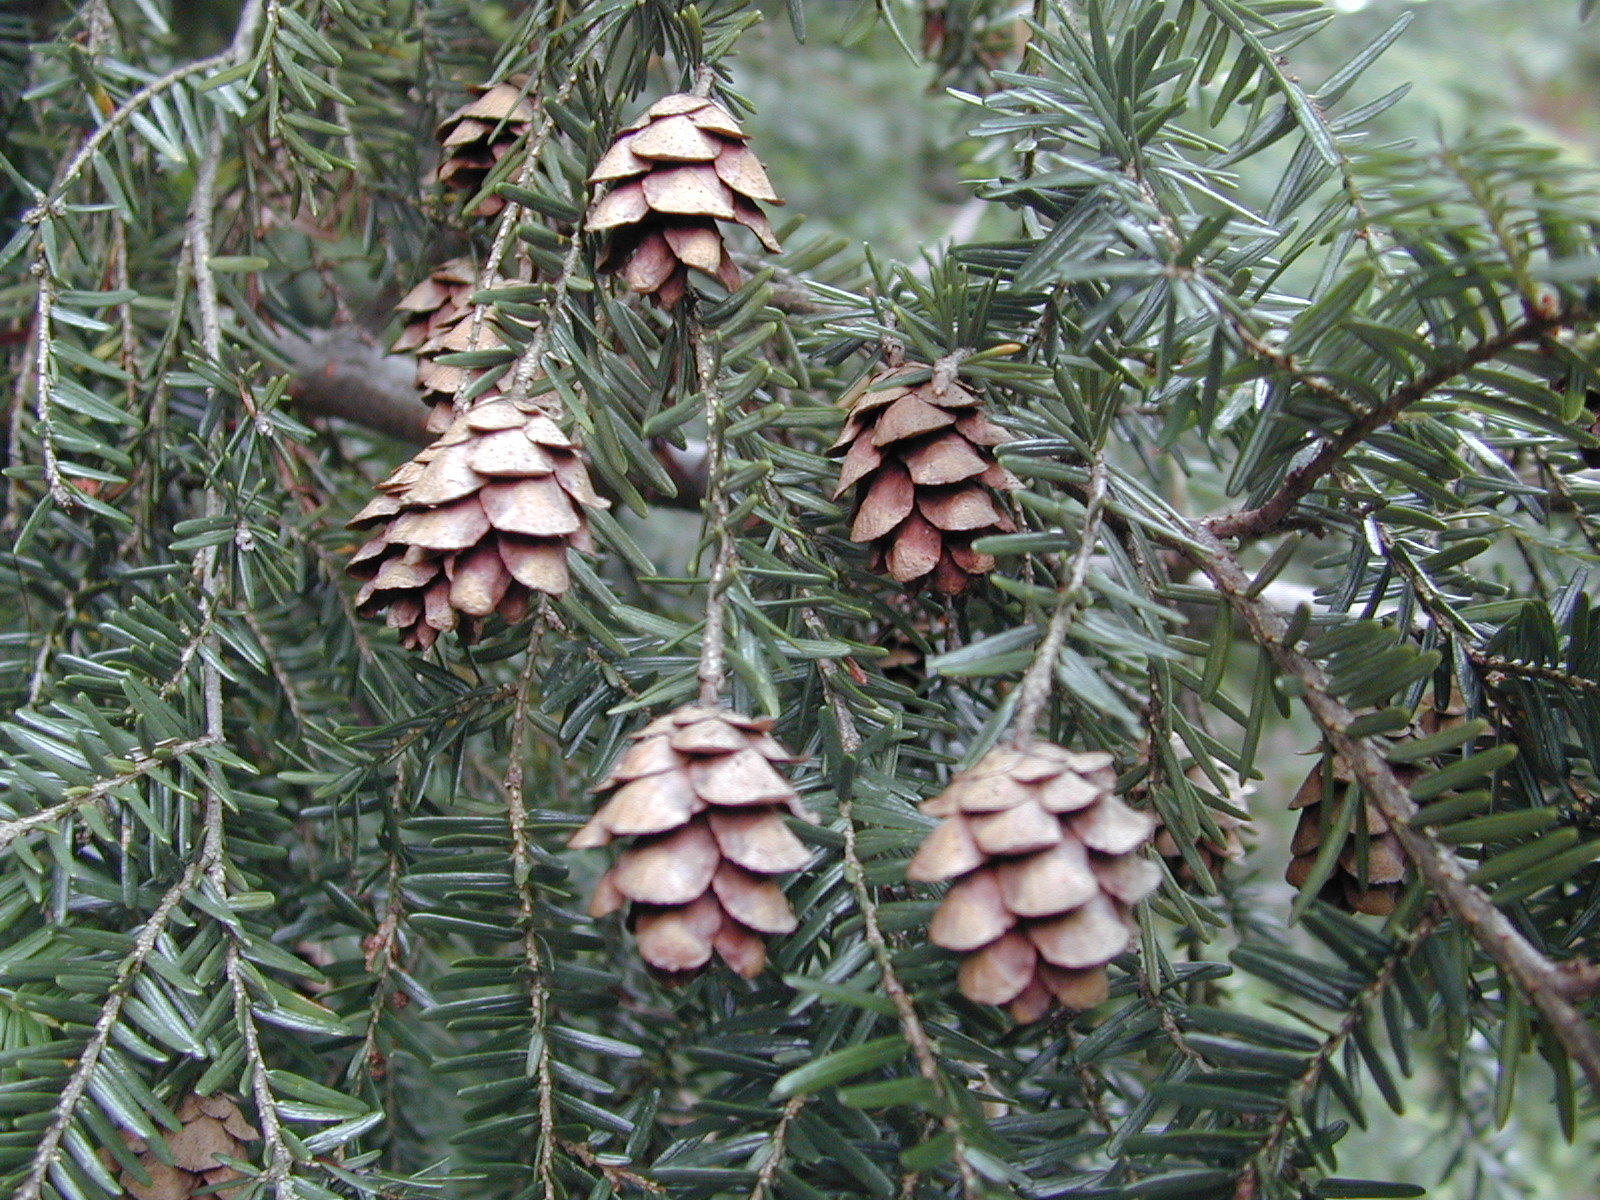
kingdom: Plantae
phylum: Tracheophyta
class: Pinopsida
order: Pinales
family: Pinaceae
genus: Tsuga
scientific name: Tsuga canadensis
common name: Eastern hemlock
